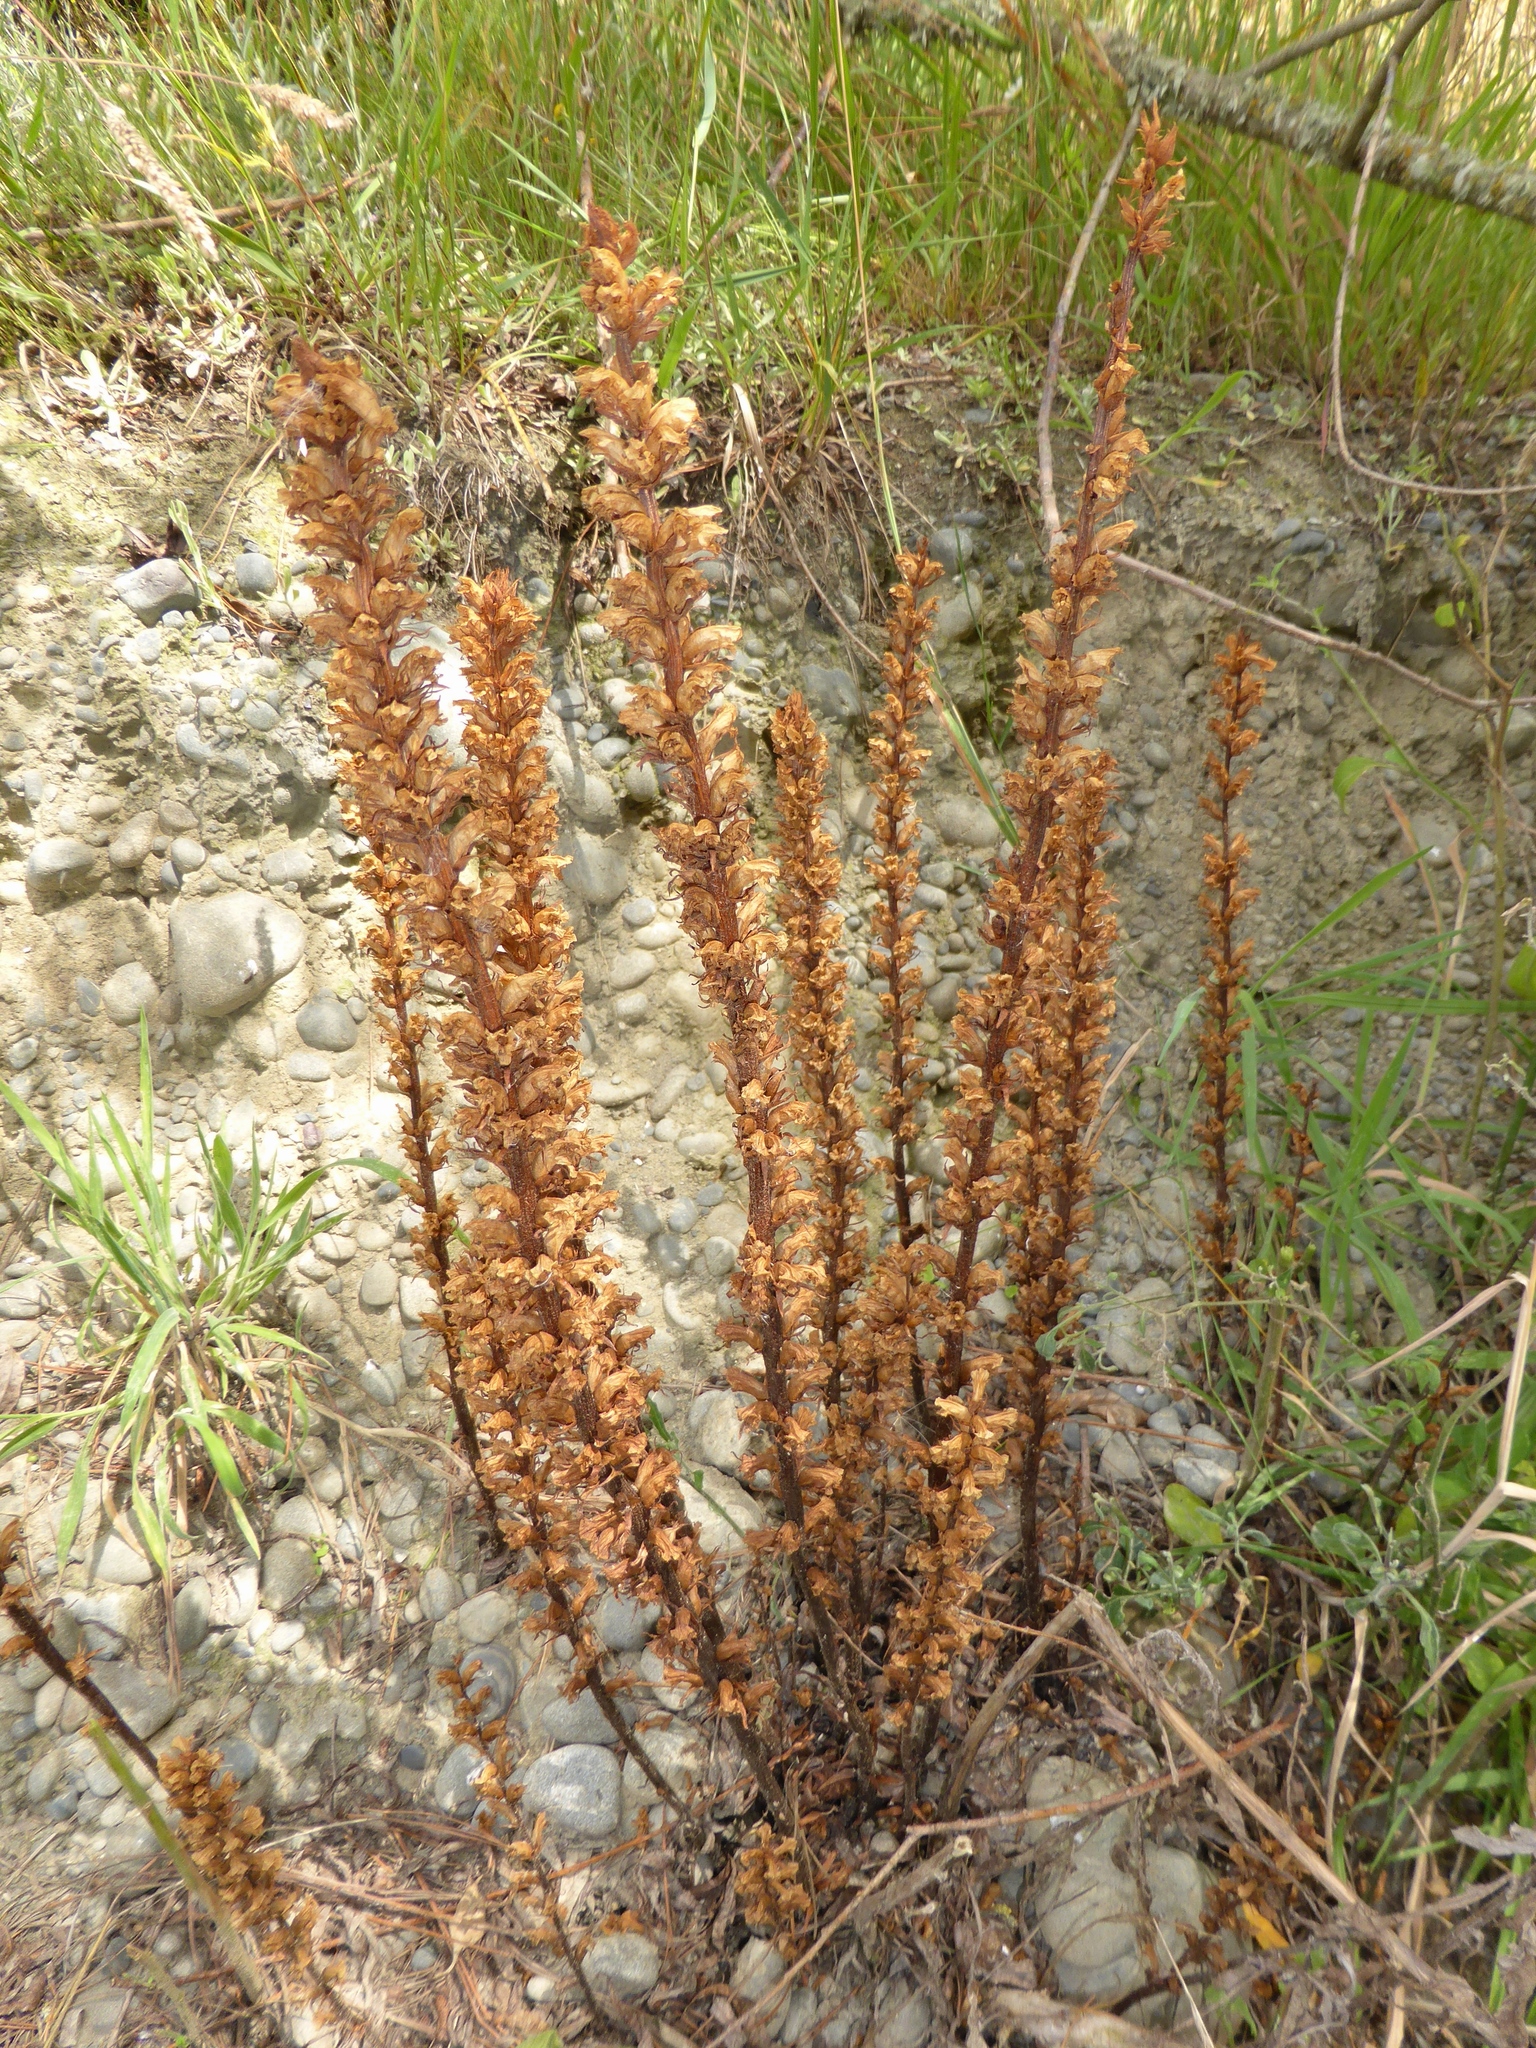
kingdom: Plantae
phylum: Tracheophyta
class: Magnoliopsida
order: Lamiales
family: Orobanchaceae
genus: Orobanche
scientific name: Orobanche minor
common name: Common broomrape
